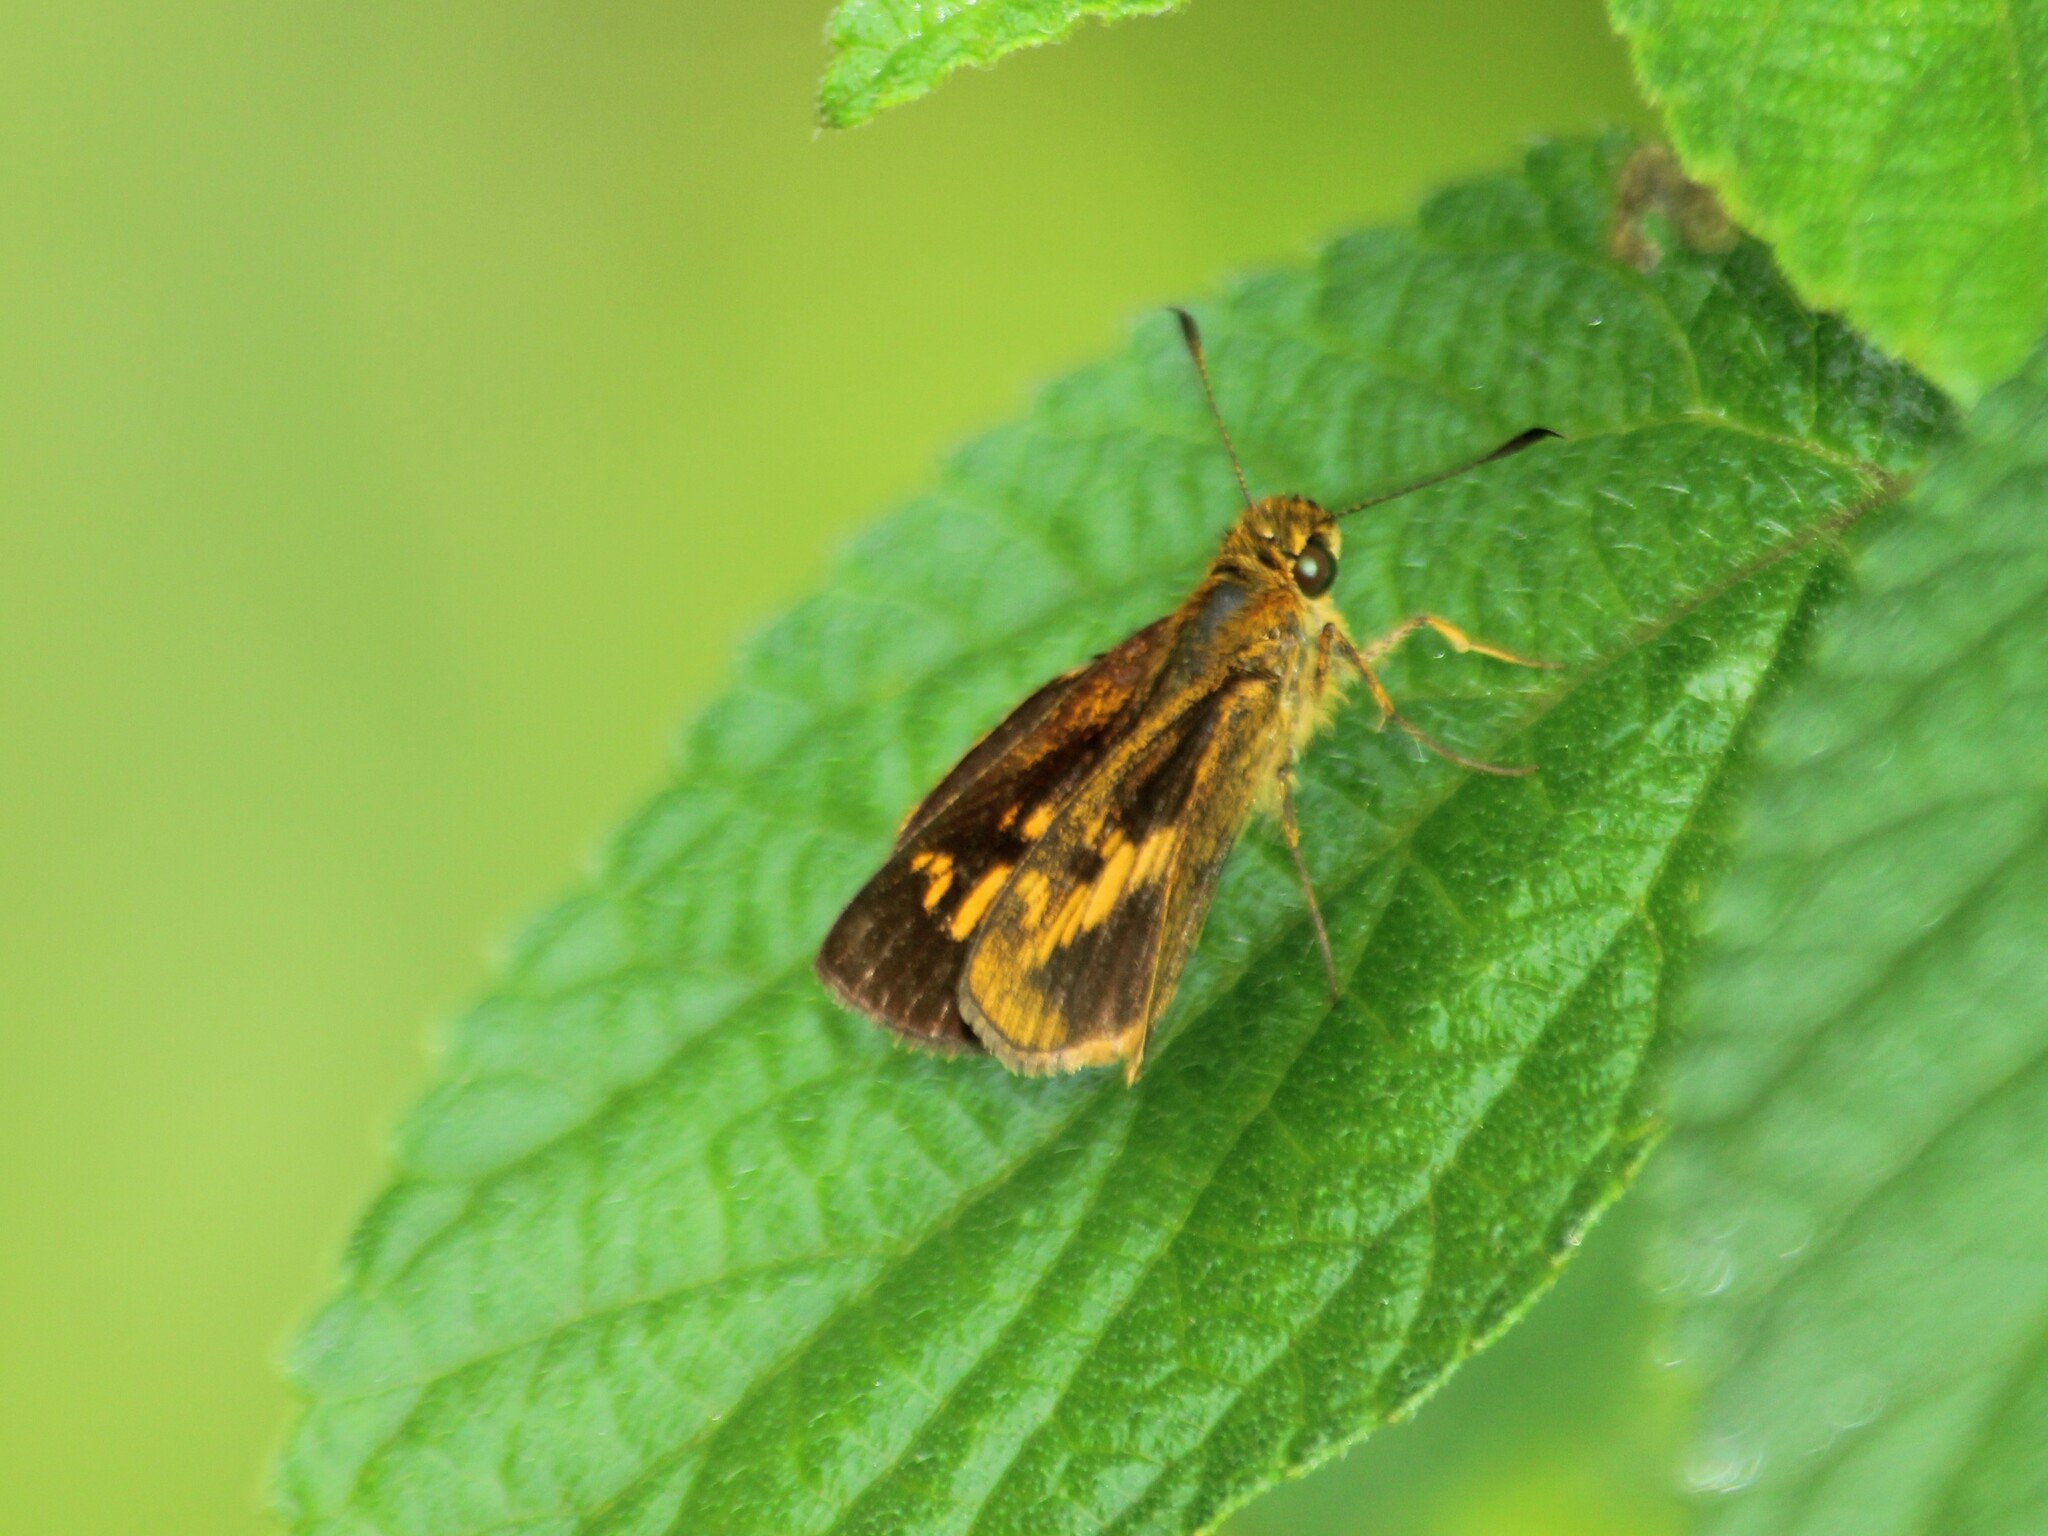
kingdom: Animalia
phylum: Arthropoda
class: Insecta
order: Lepidoptera
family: Hesperiidae
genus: Oriens
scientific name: Oriens concinna
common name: Sahyadri dartlet
